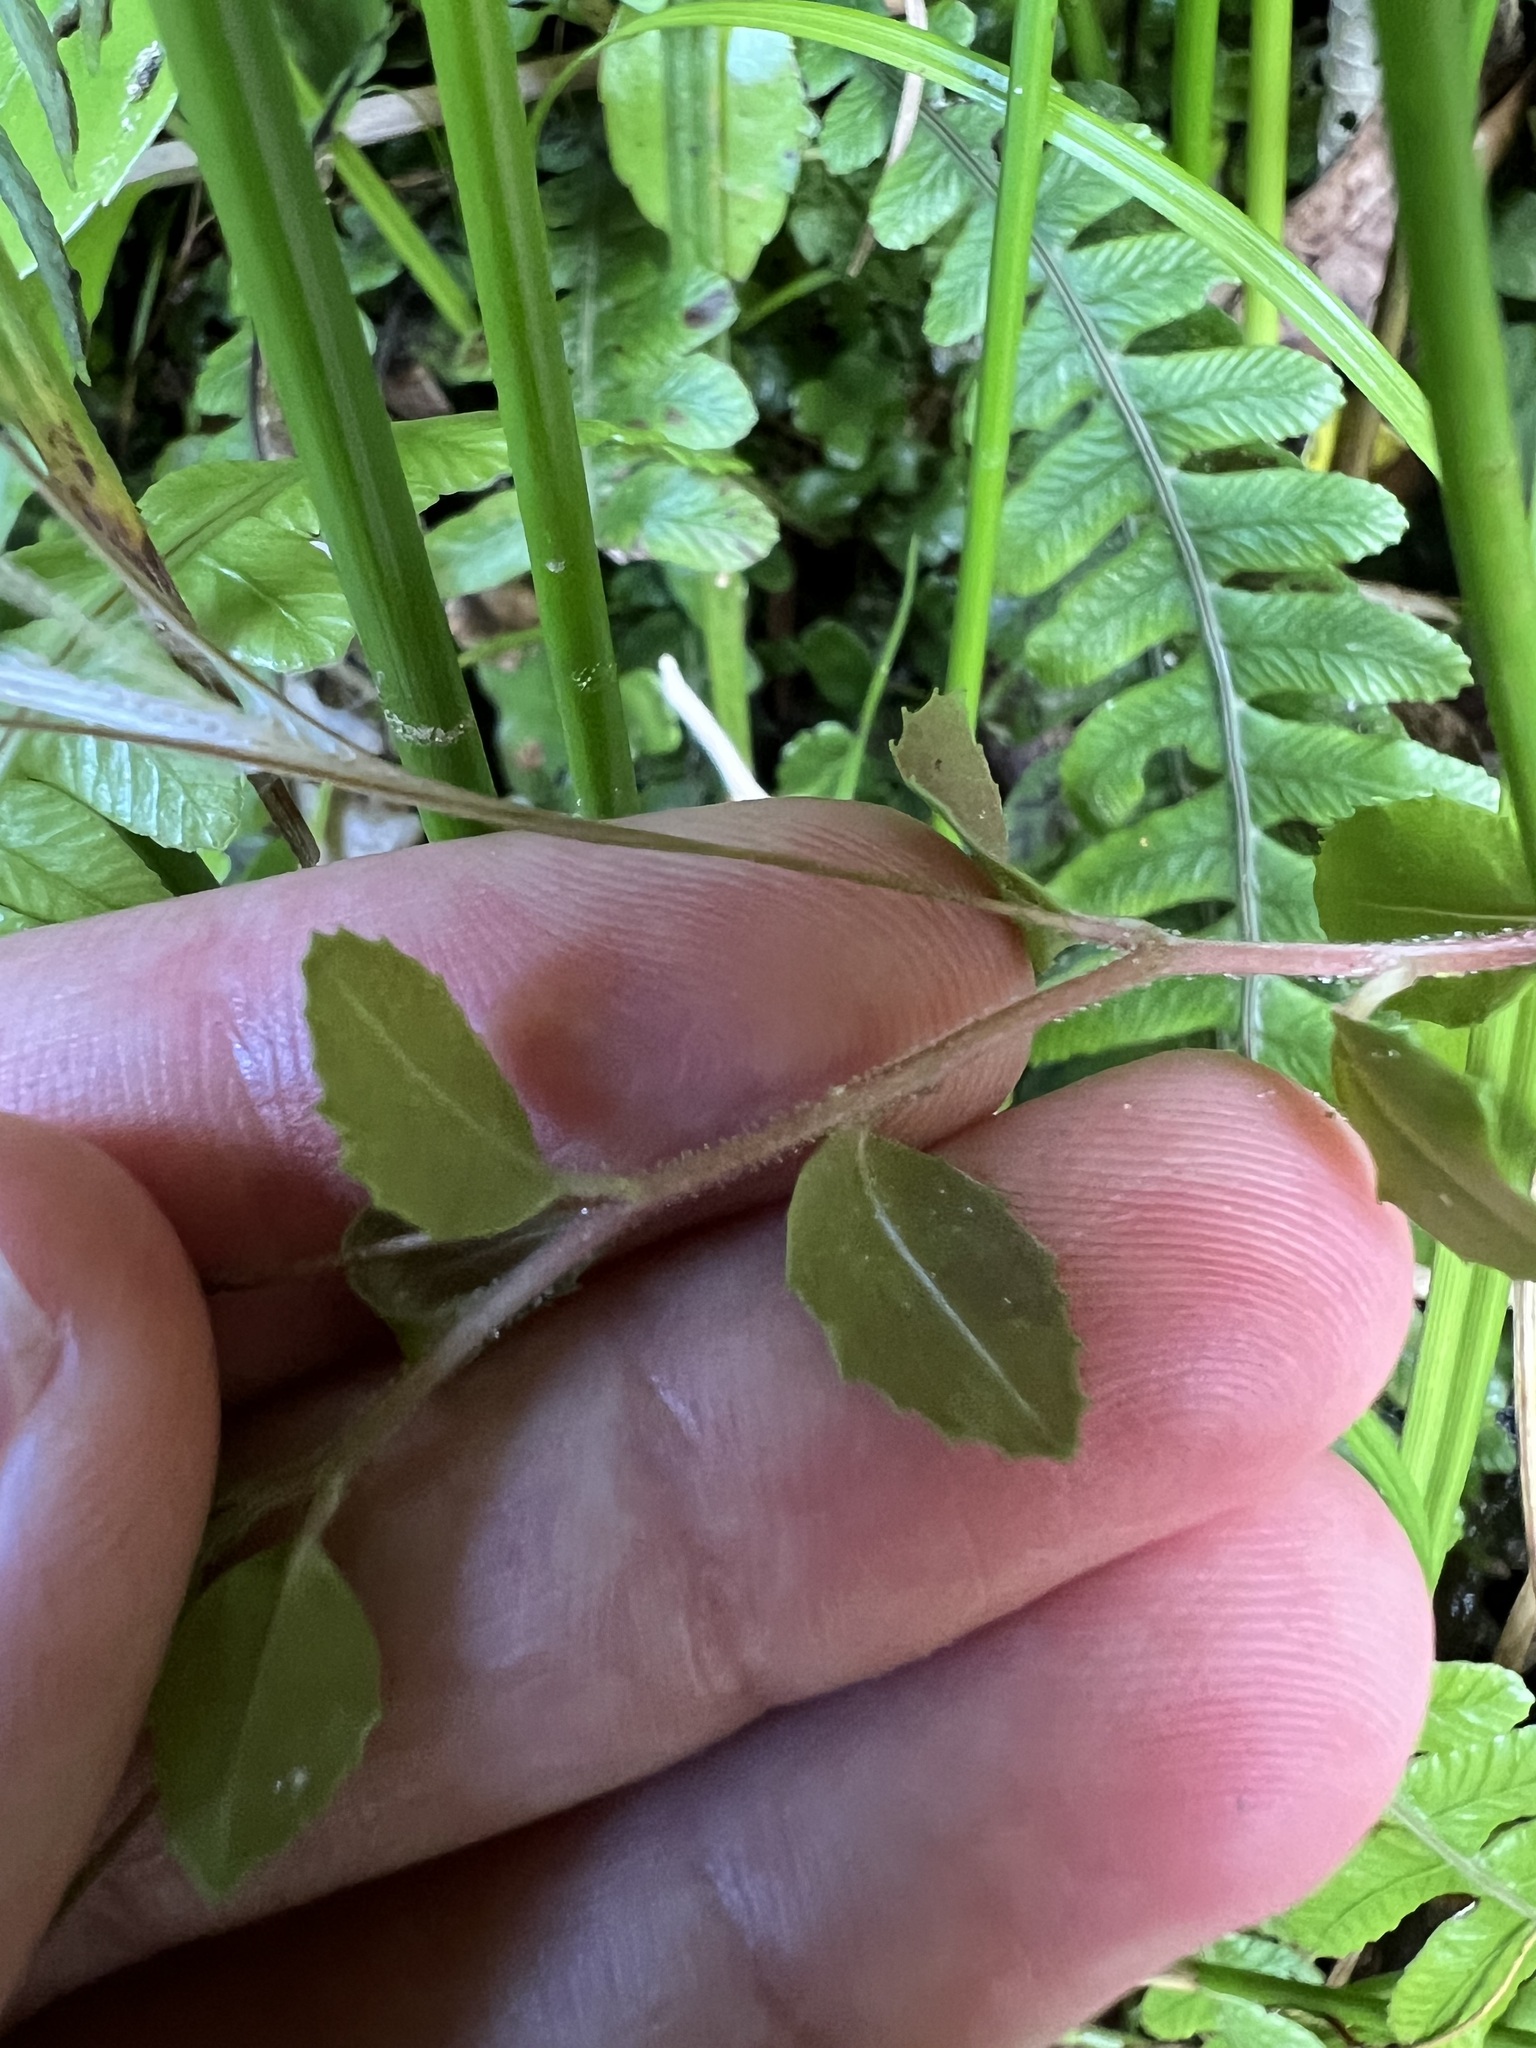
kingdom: Plantae
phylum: Tracheophyta
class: Magnoliopsida
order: Myrtales
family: Onagraceae
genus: Epilobium
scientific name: Epilobium rotundifolium
